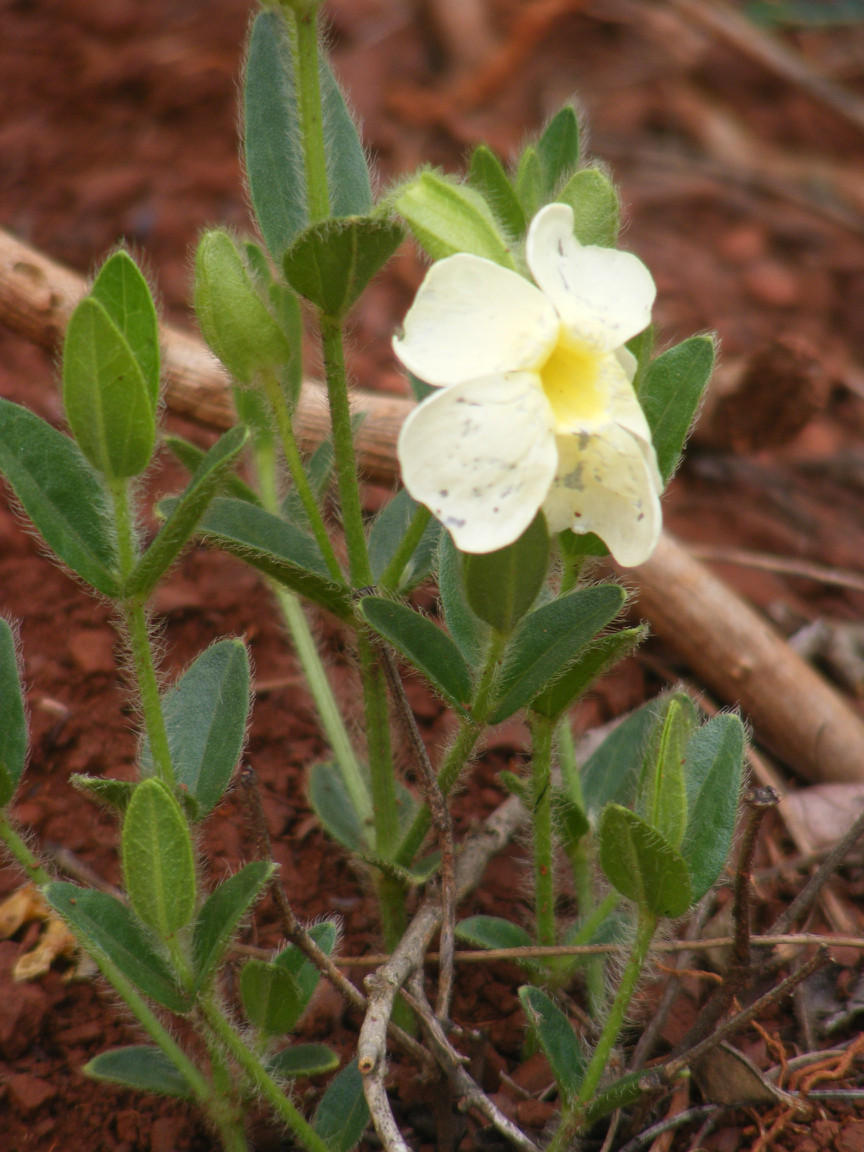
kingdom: Plantae
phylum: Tracheophyta
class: Magnoliopsida
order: Lamiales
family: Acanthaceae
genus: Thunbergia
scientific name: Thunbergia atriplicifolia
